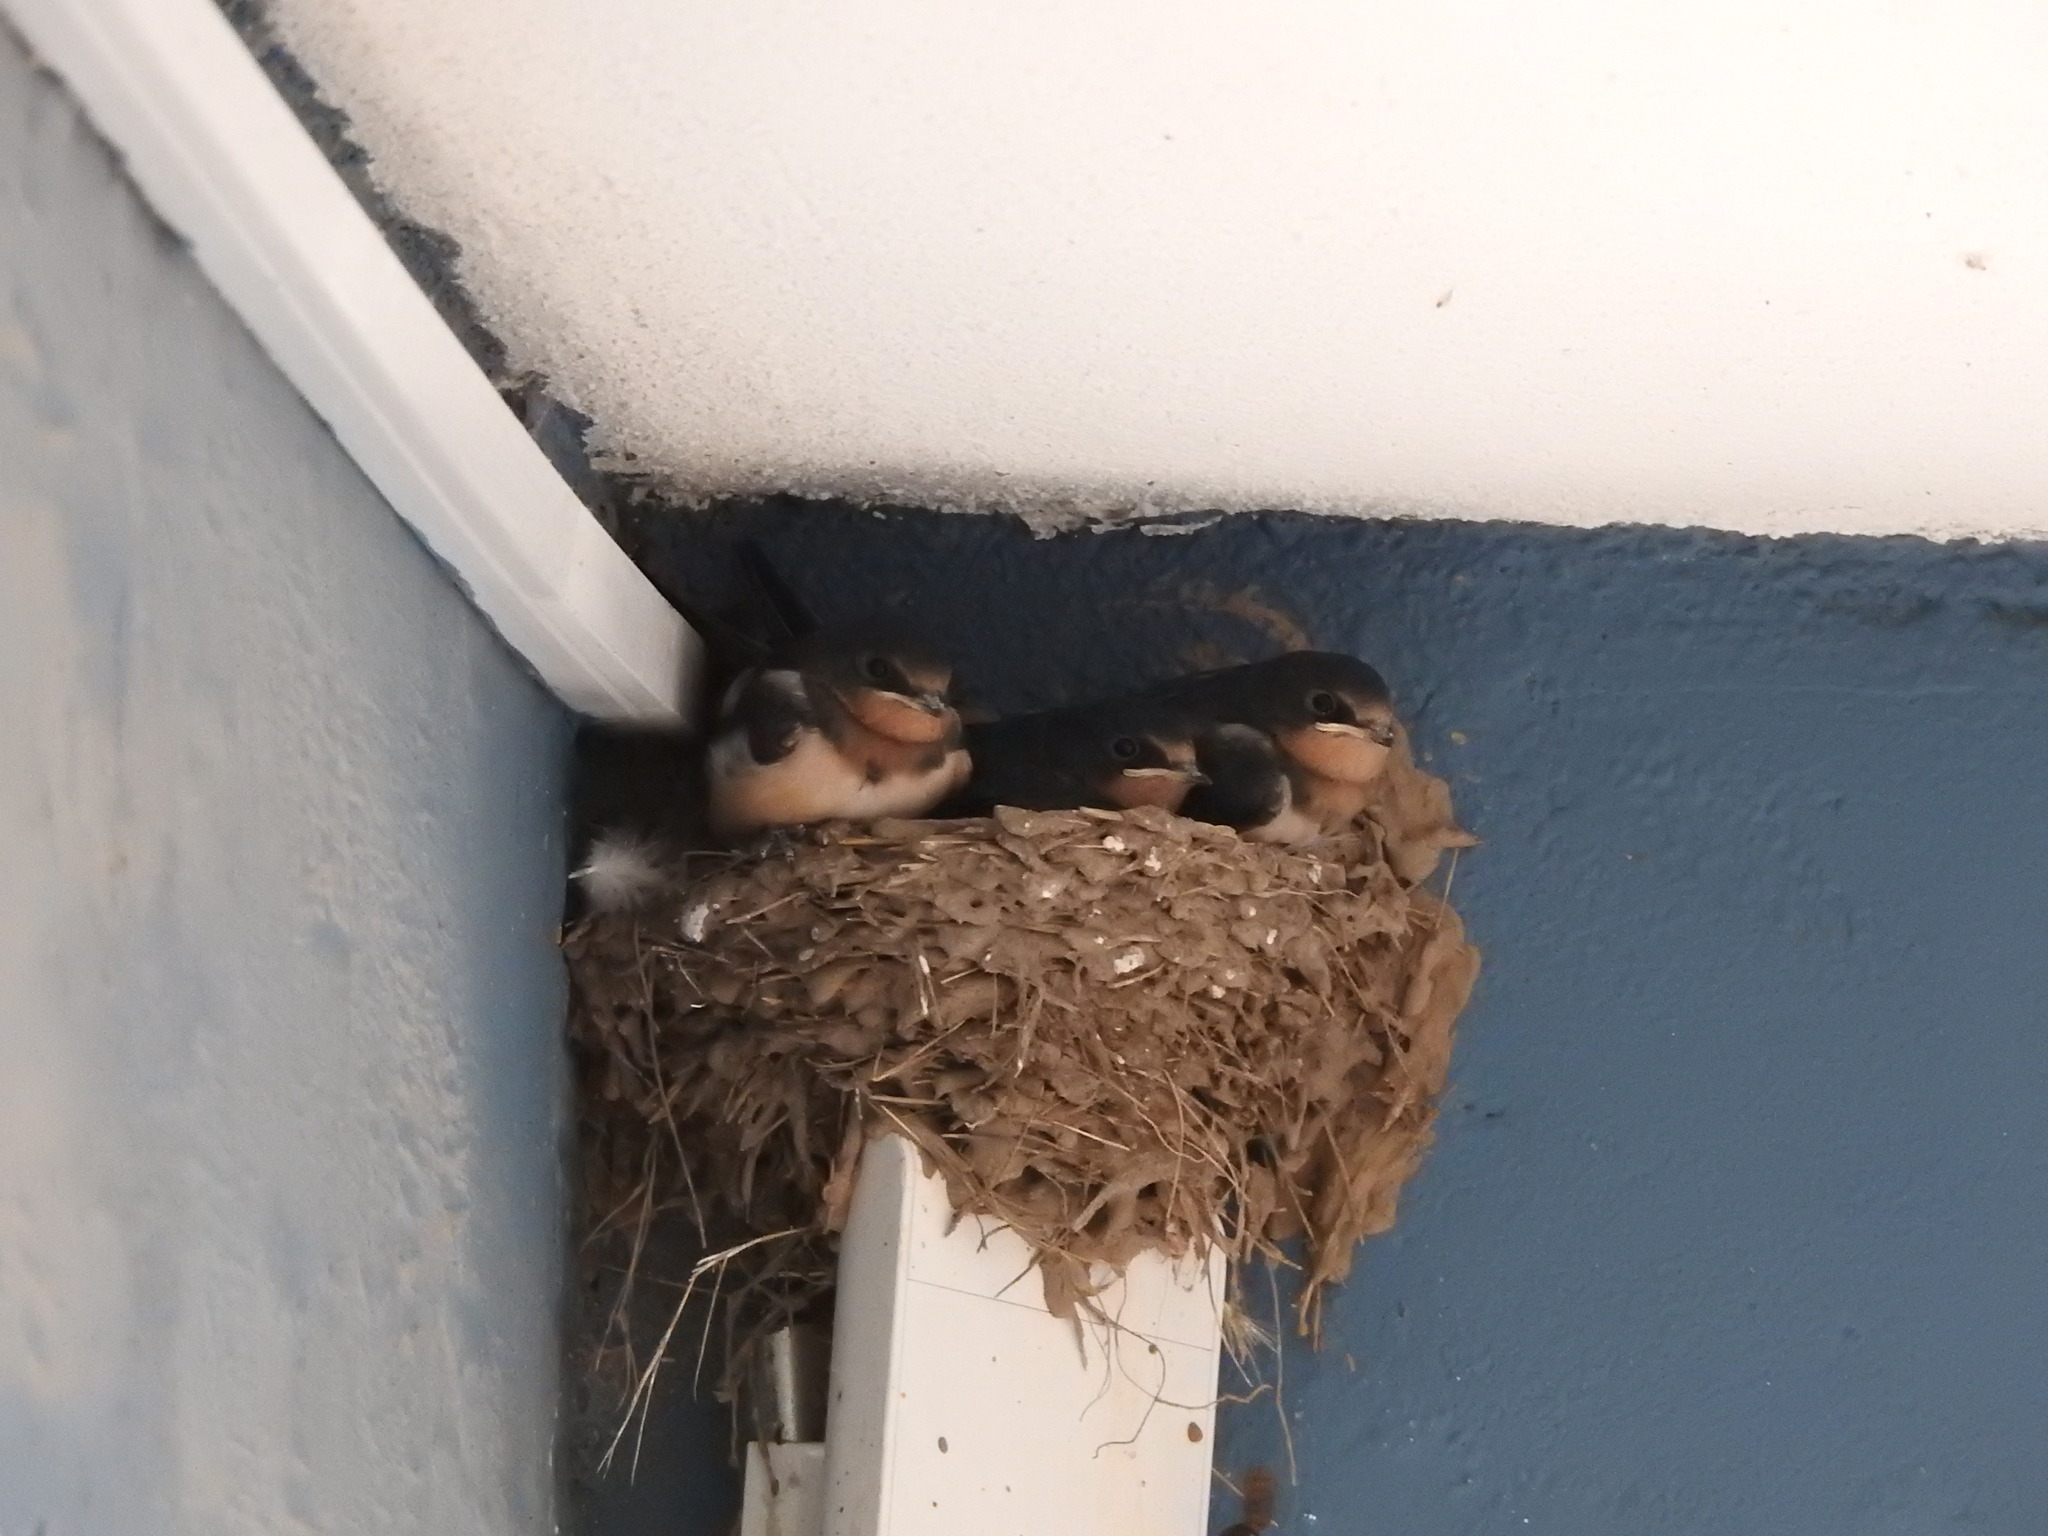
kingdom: Animalia
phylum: Chordata
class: Aves
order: Passeriformes
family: Hirundinidae
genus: Hirundo
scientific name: Hirundo rustica
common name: Barn swallow
